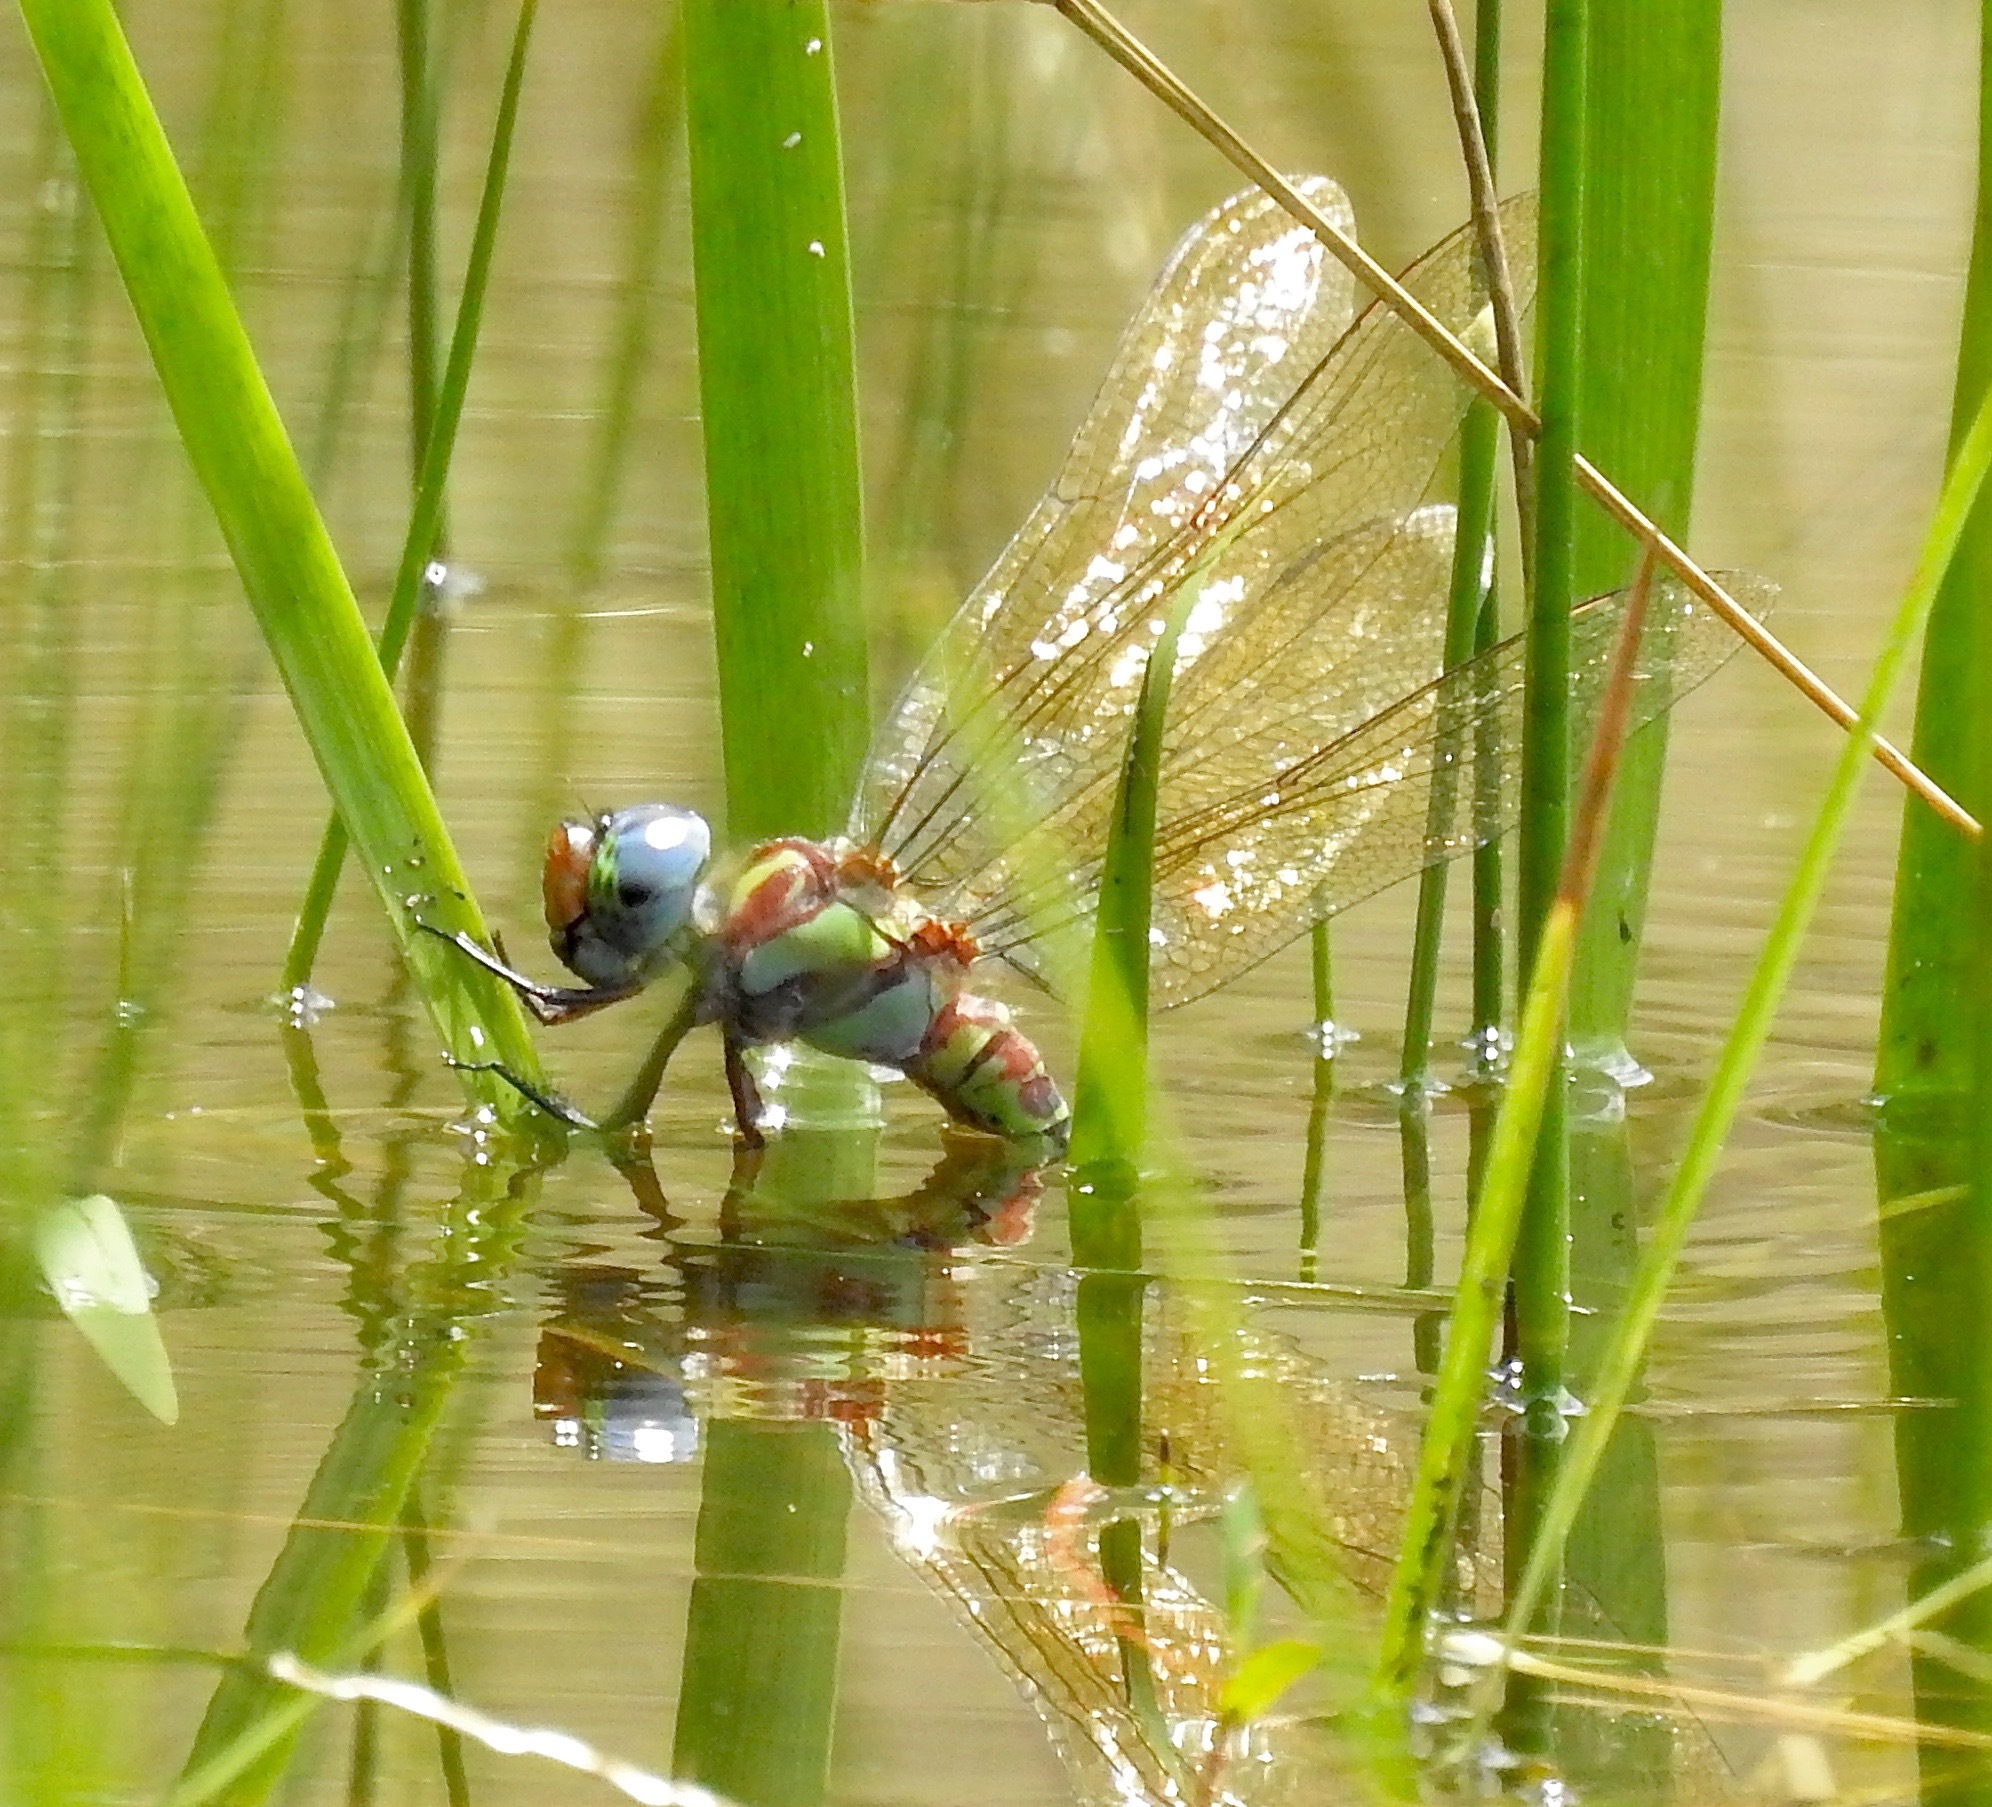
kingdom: Animalia
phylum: Arthropoda
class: Insecta
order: Odonata
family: Aeshnidae
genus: Coryphaeschna
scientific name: Coryphaeschna ingens
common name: Regal darner
